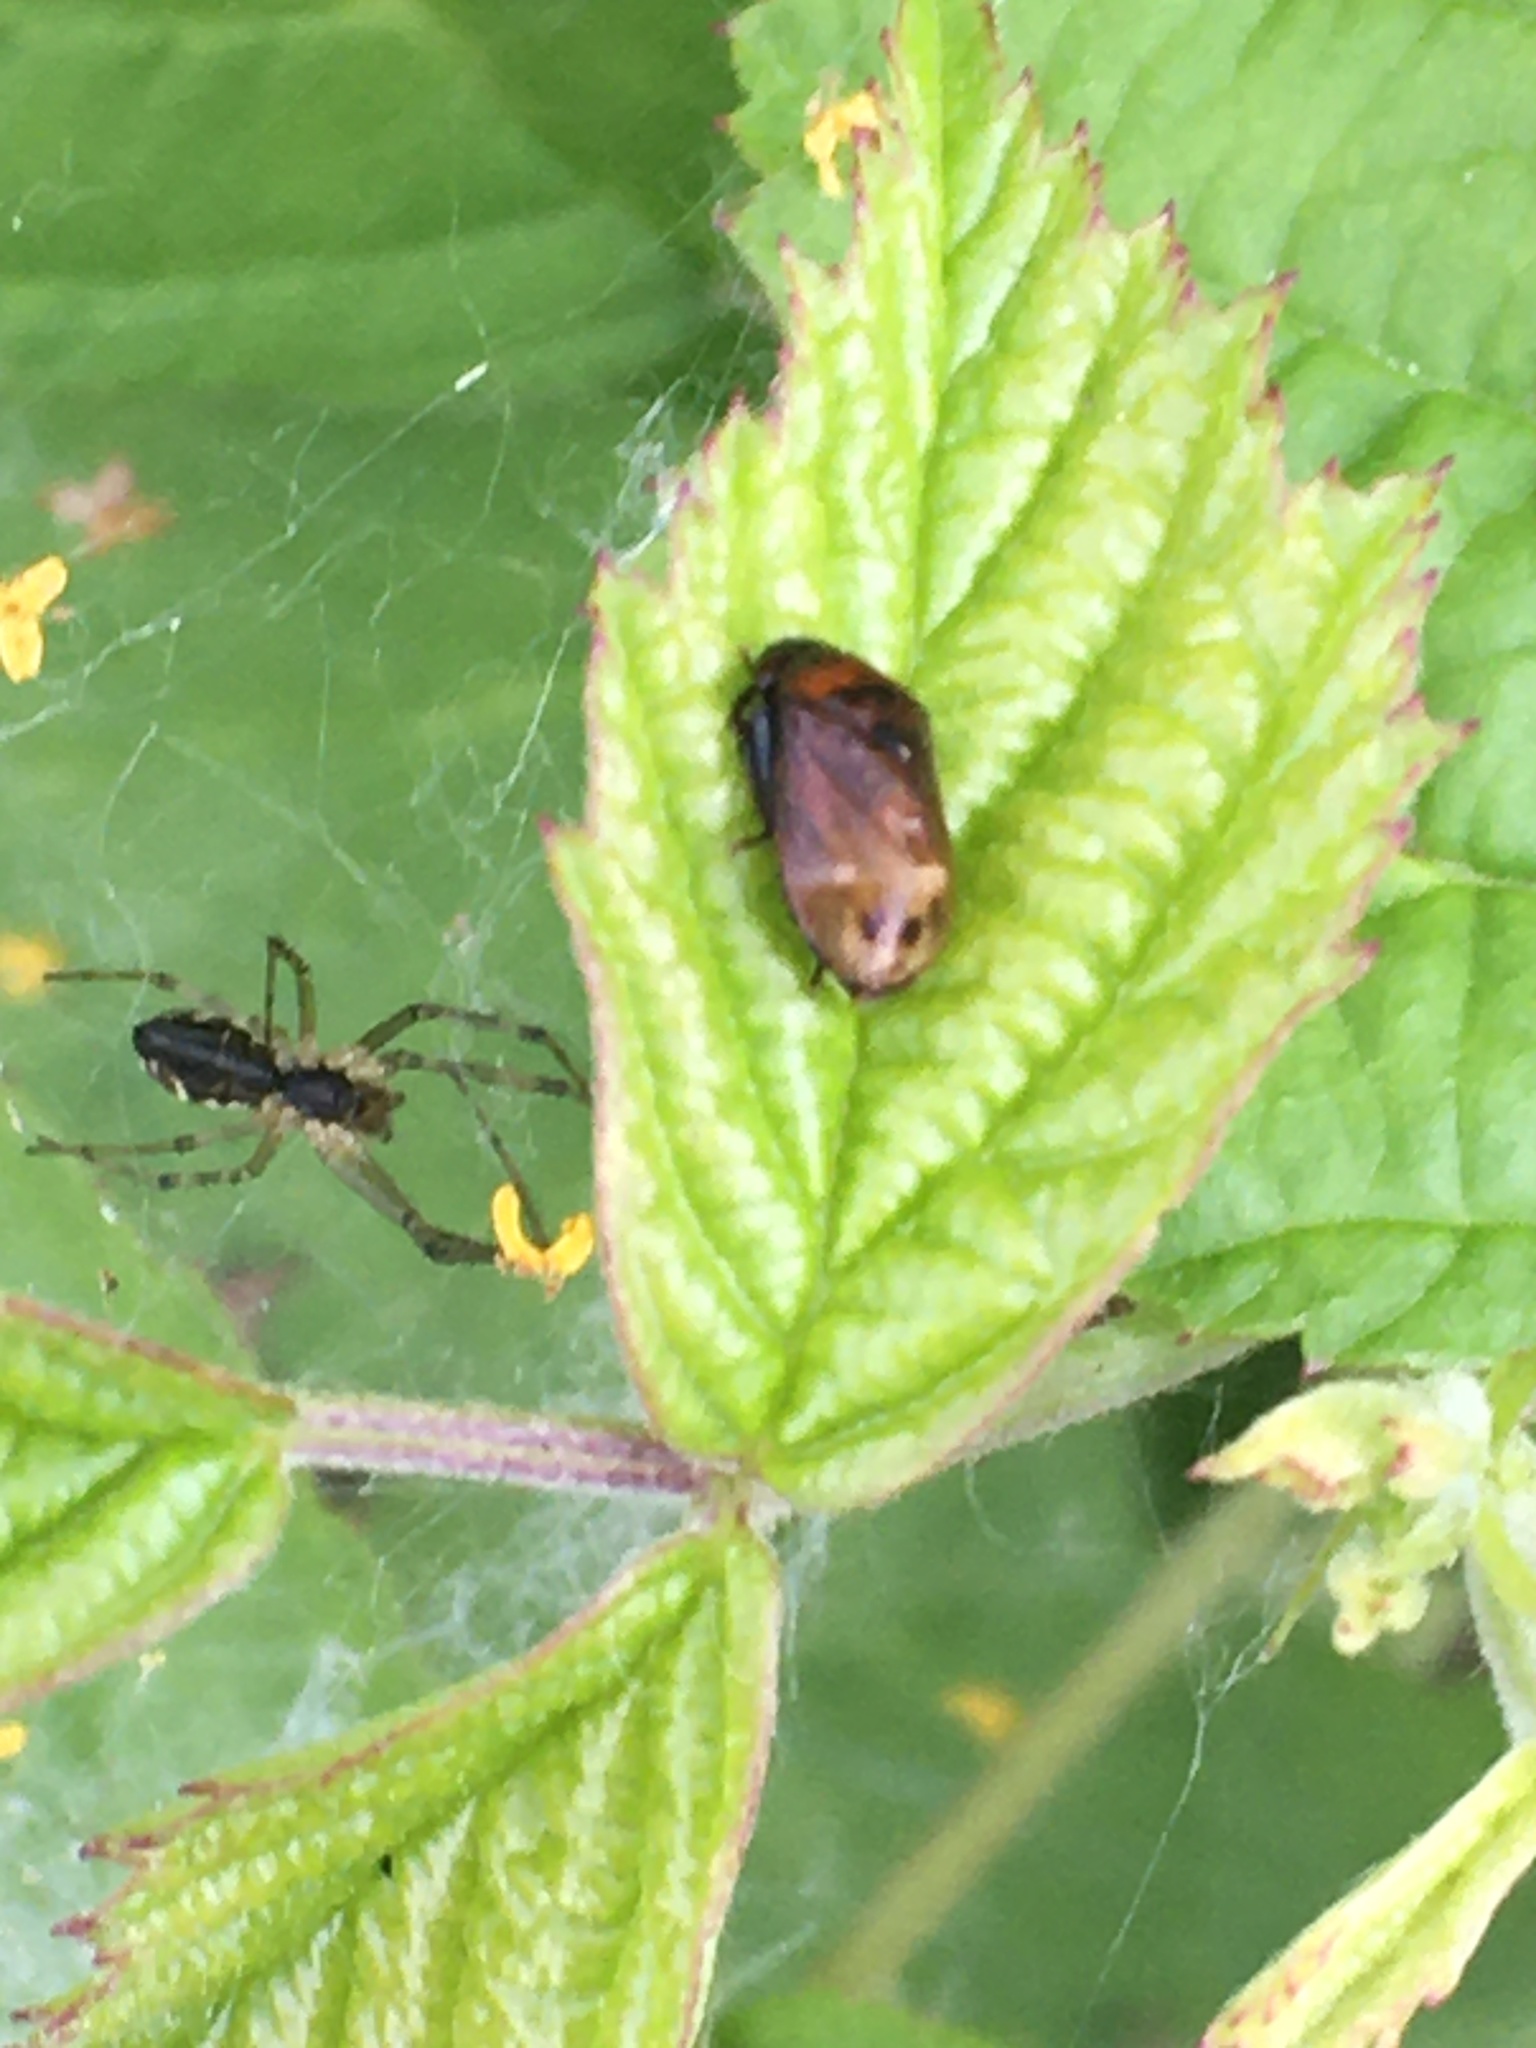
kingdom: Animalia
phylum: Arthropoda
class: Insecta
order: Hemiptera
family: Cicadellidae
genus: Penthimia
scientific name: Penthimia nigra
